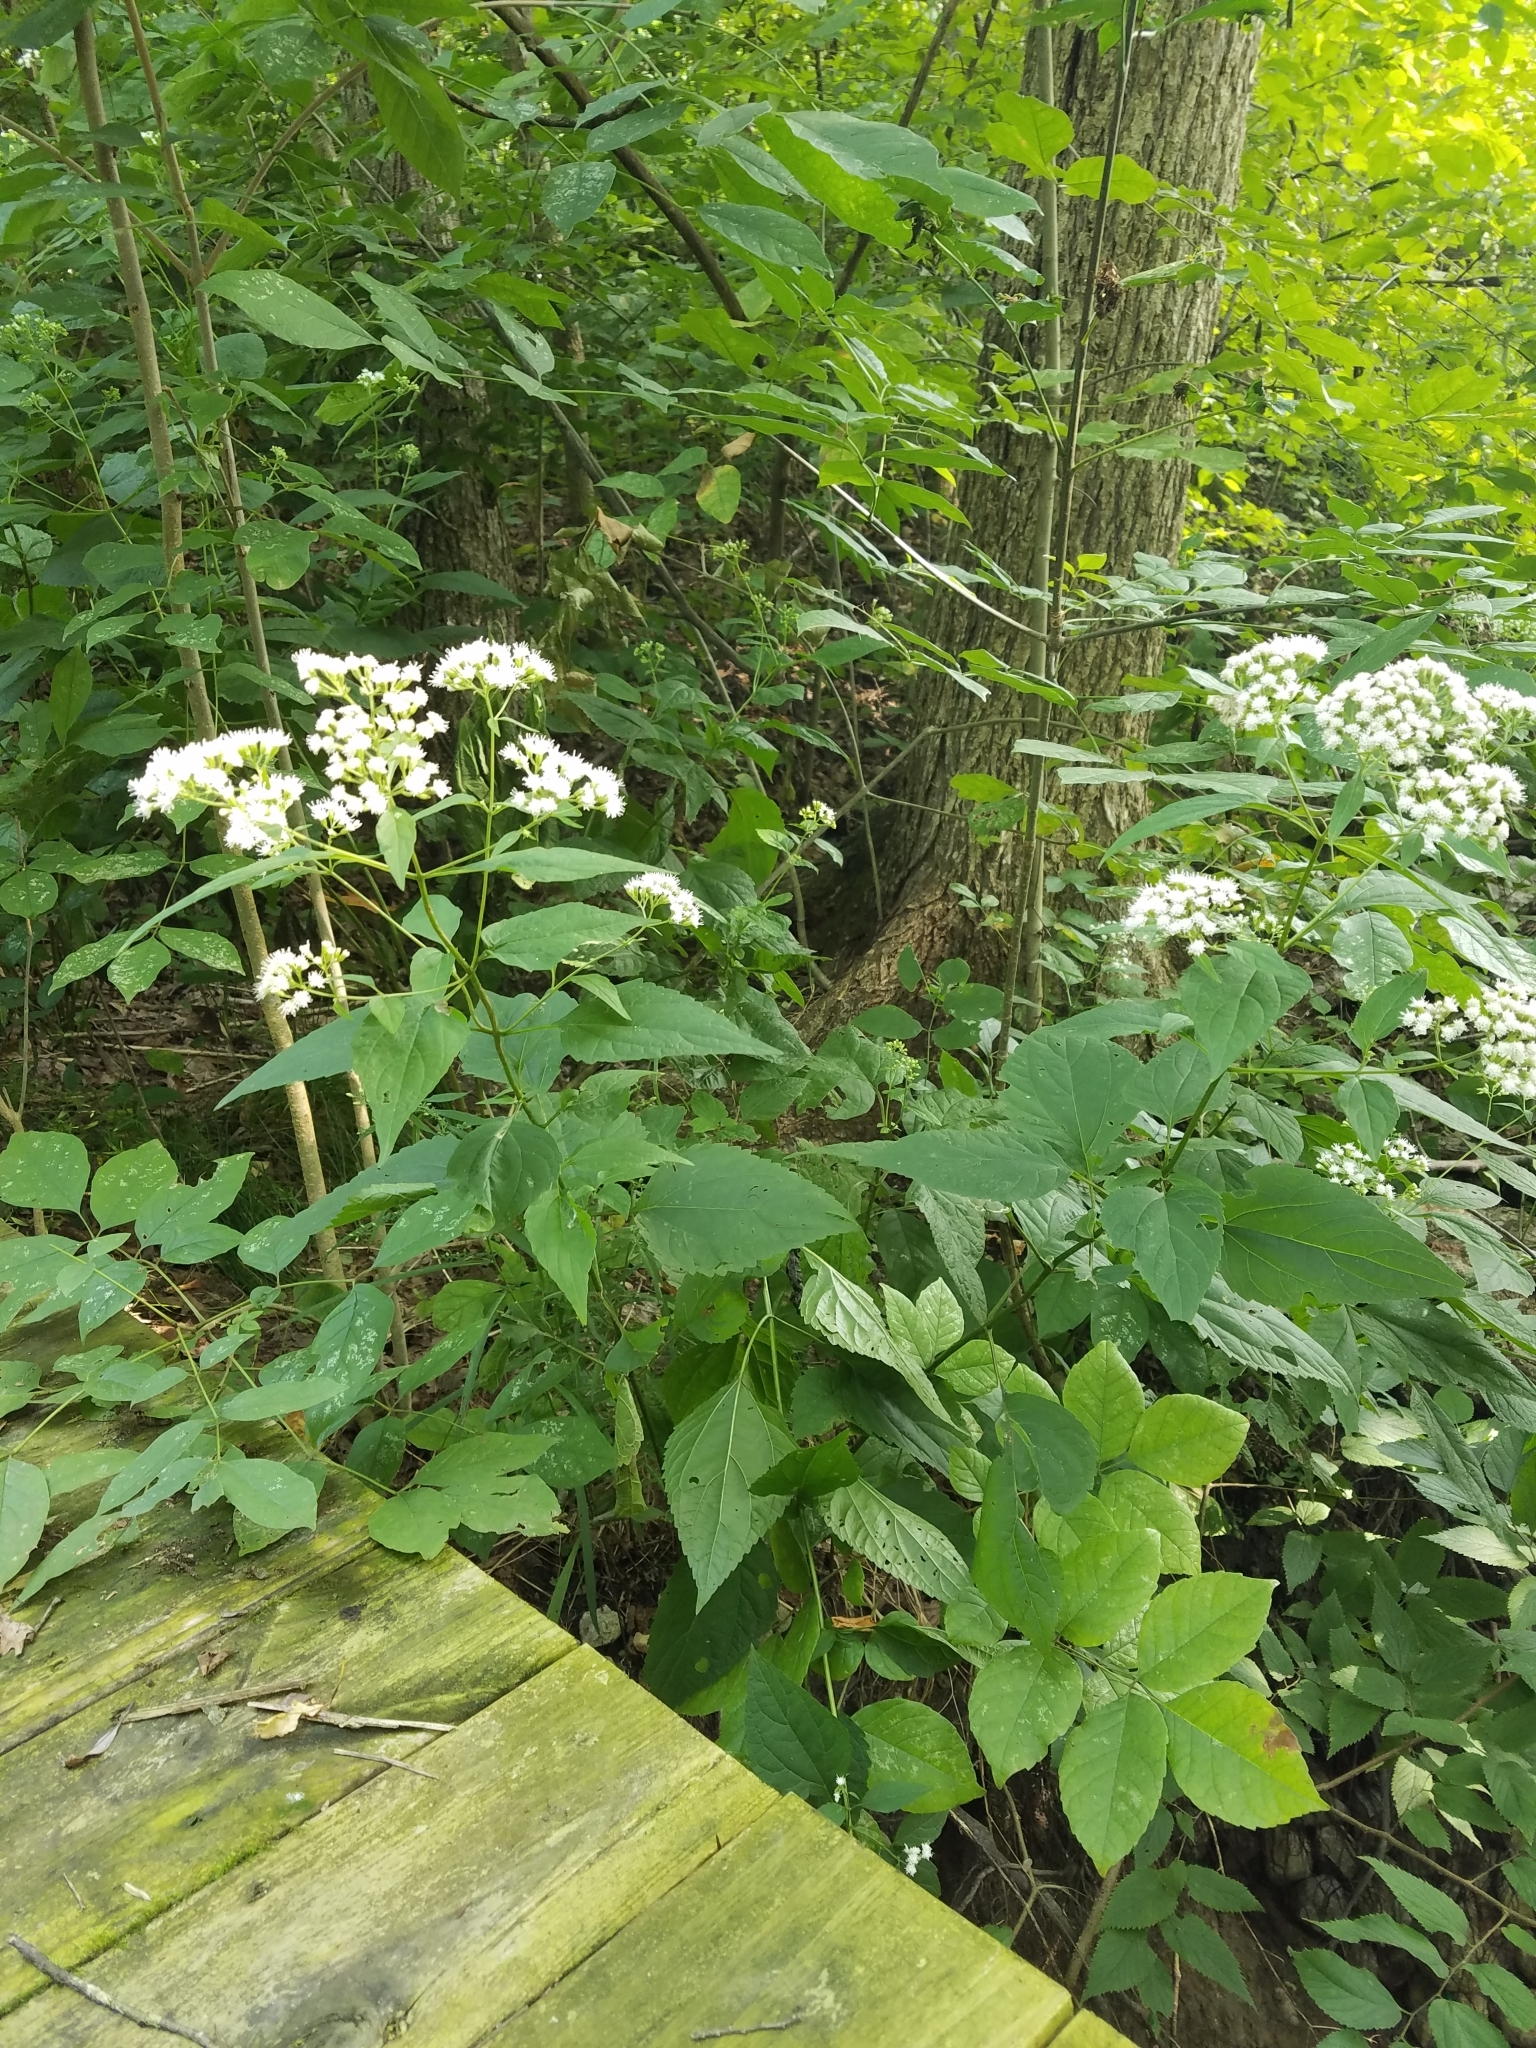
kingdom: Plantae
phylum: Tracheophyta
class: Magnoliopsida
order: Asterales
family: Asteraceae
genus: Ageratina
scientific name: Ageratina altissima
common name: White snakeroot
